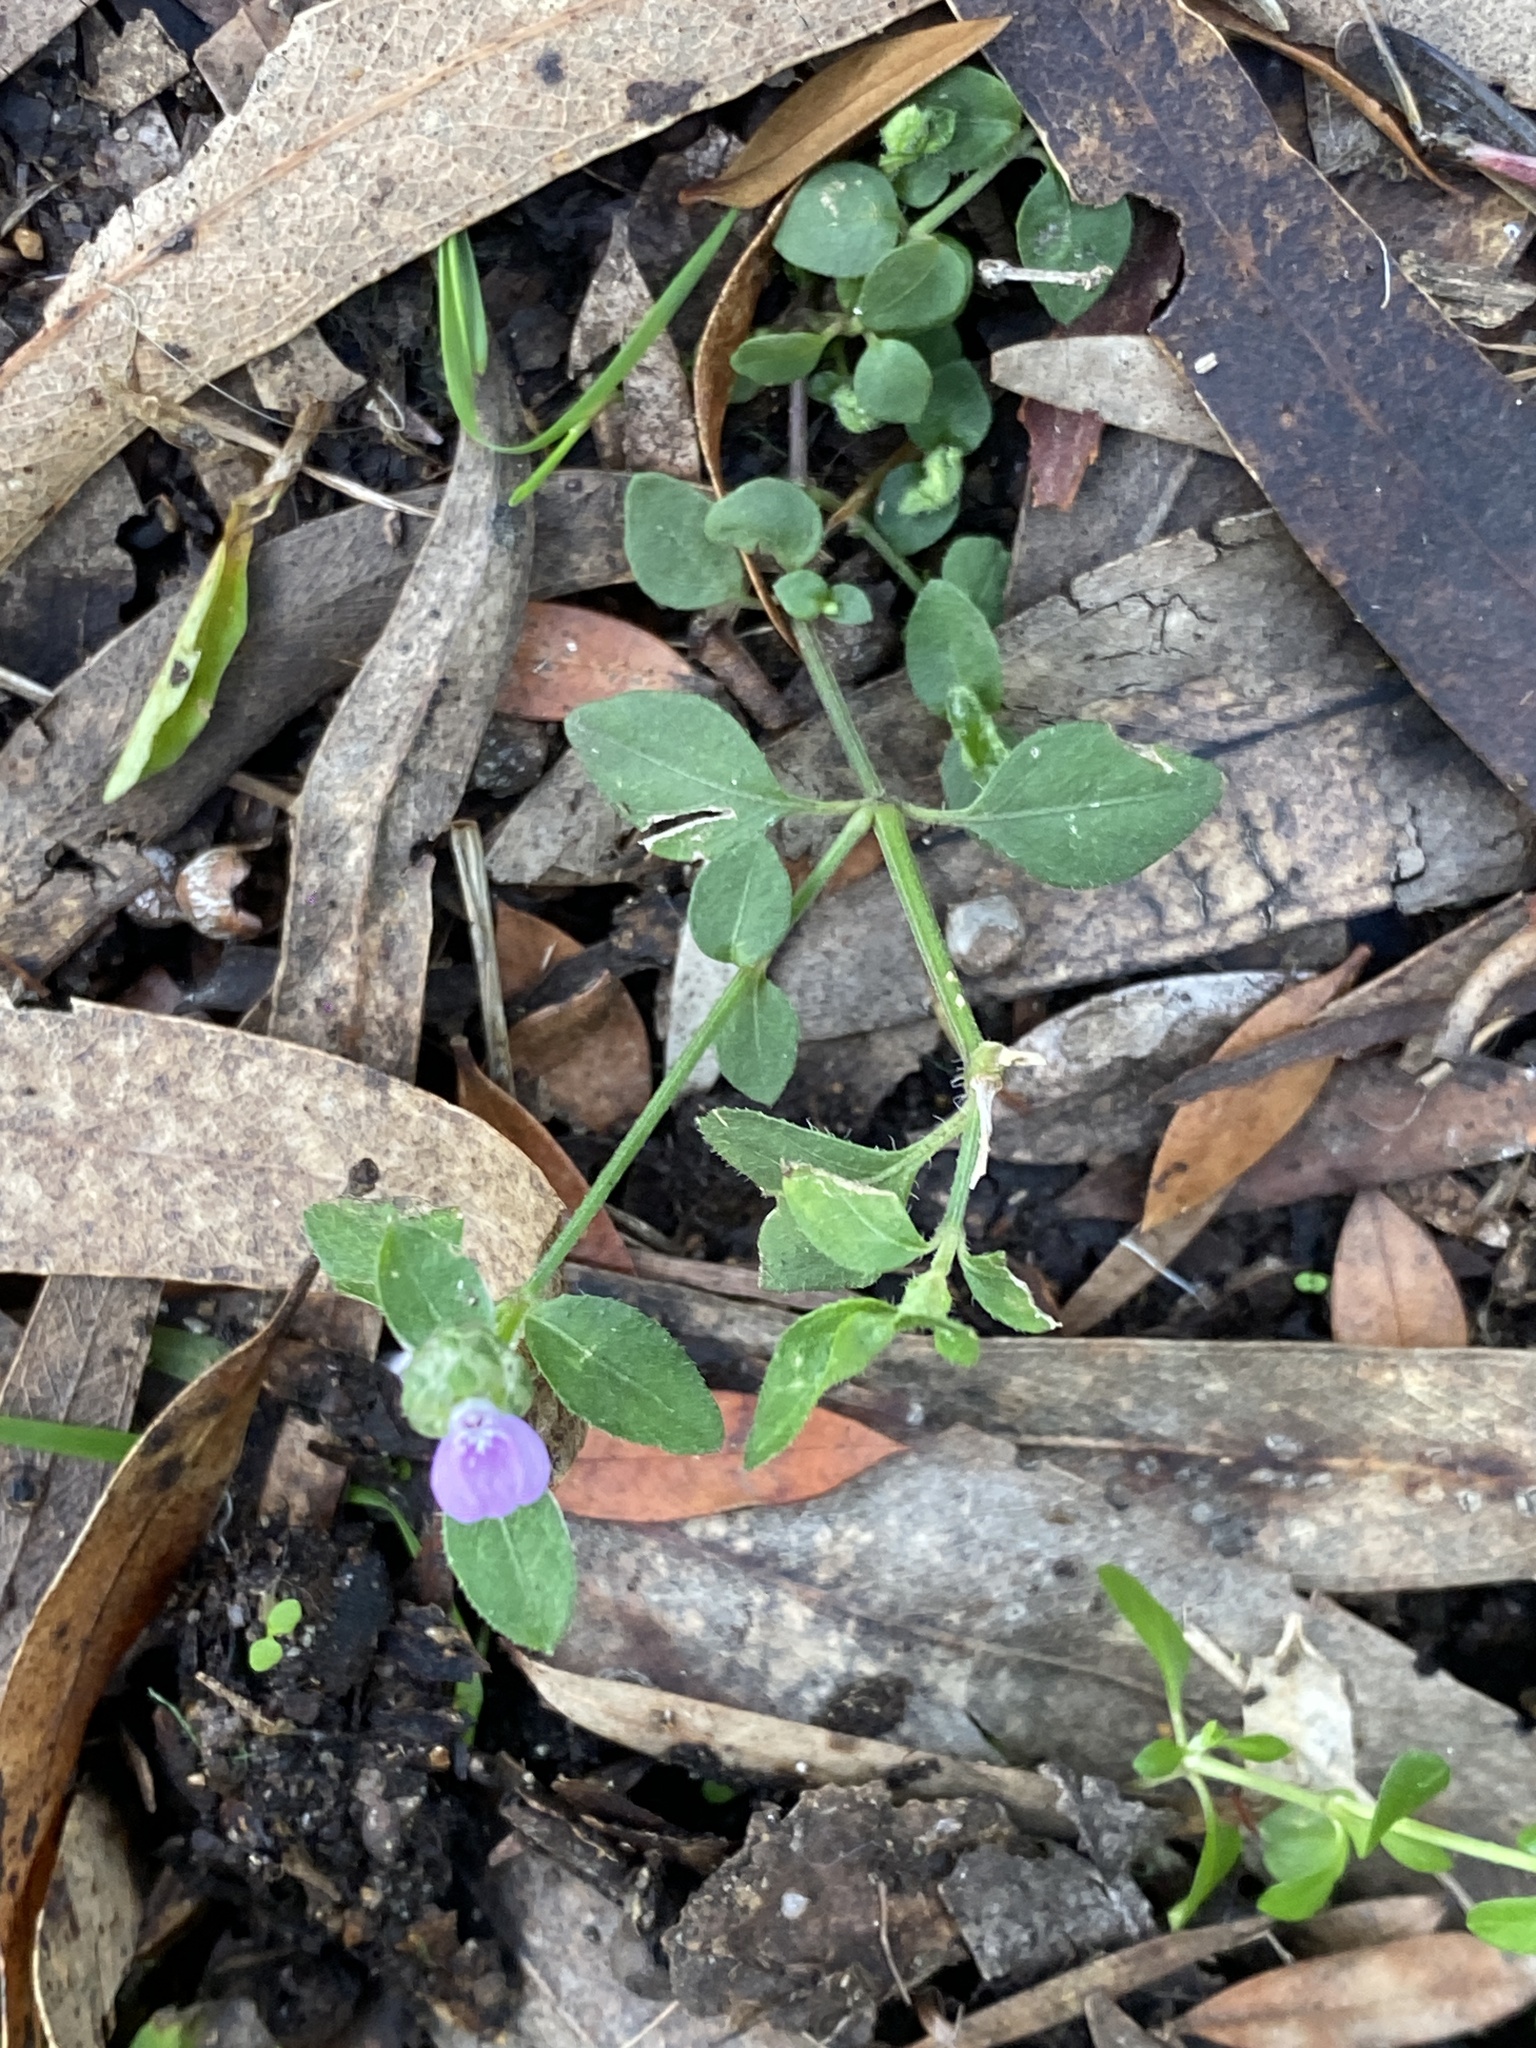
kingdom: Plantae
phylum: Tracheophyta
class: Magnoliopsida
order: Lamiales
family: Acanthaceae
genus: Rostellularia
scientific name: Rostellularia obtusa
